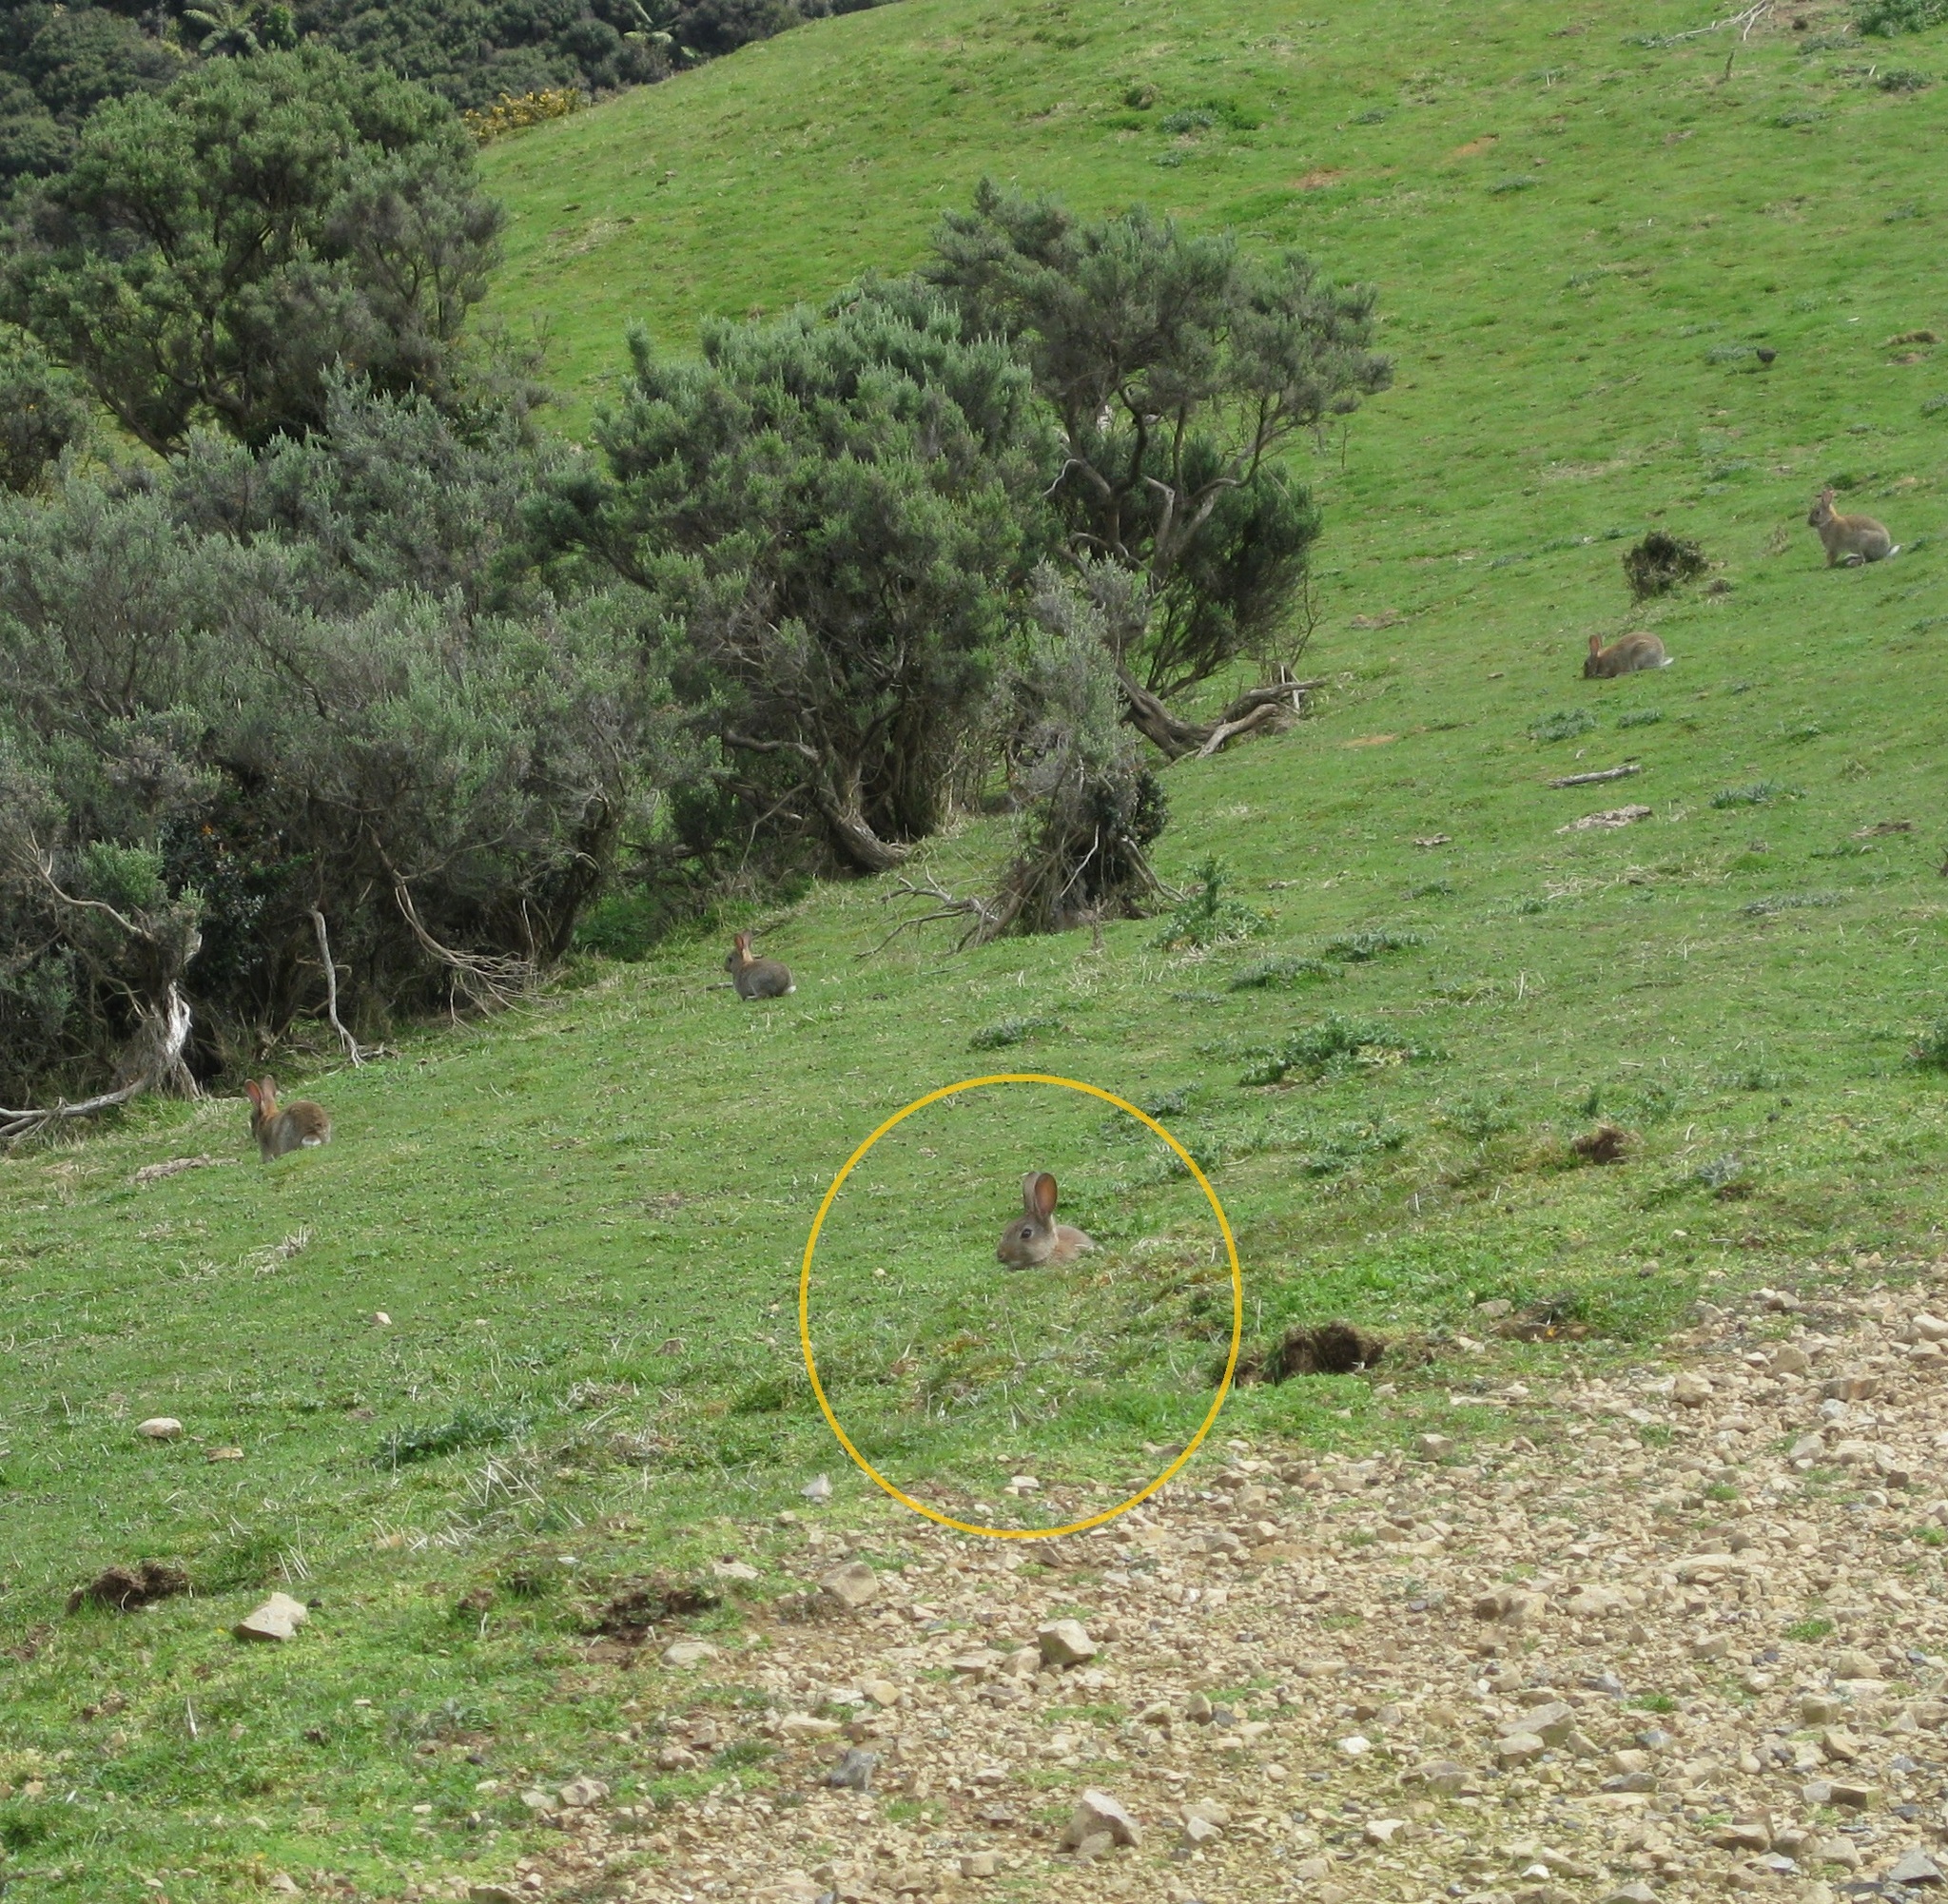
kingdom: Animalia
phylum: Chordata
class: Mammalia
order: Lagomorpha
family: Leporidae
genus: Oryctolagus
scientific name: Oryctolagus cuniculus
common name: European rabbit
